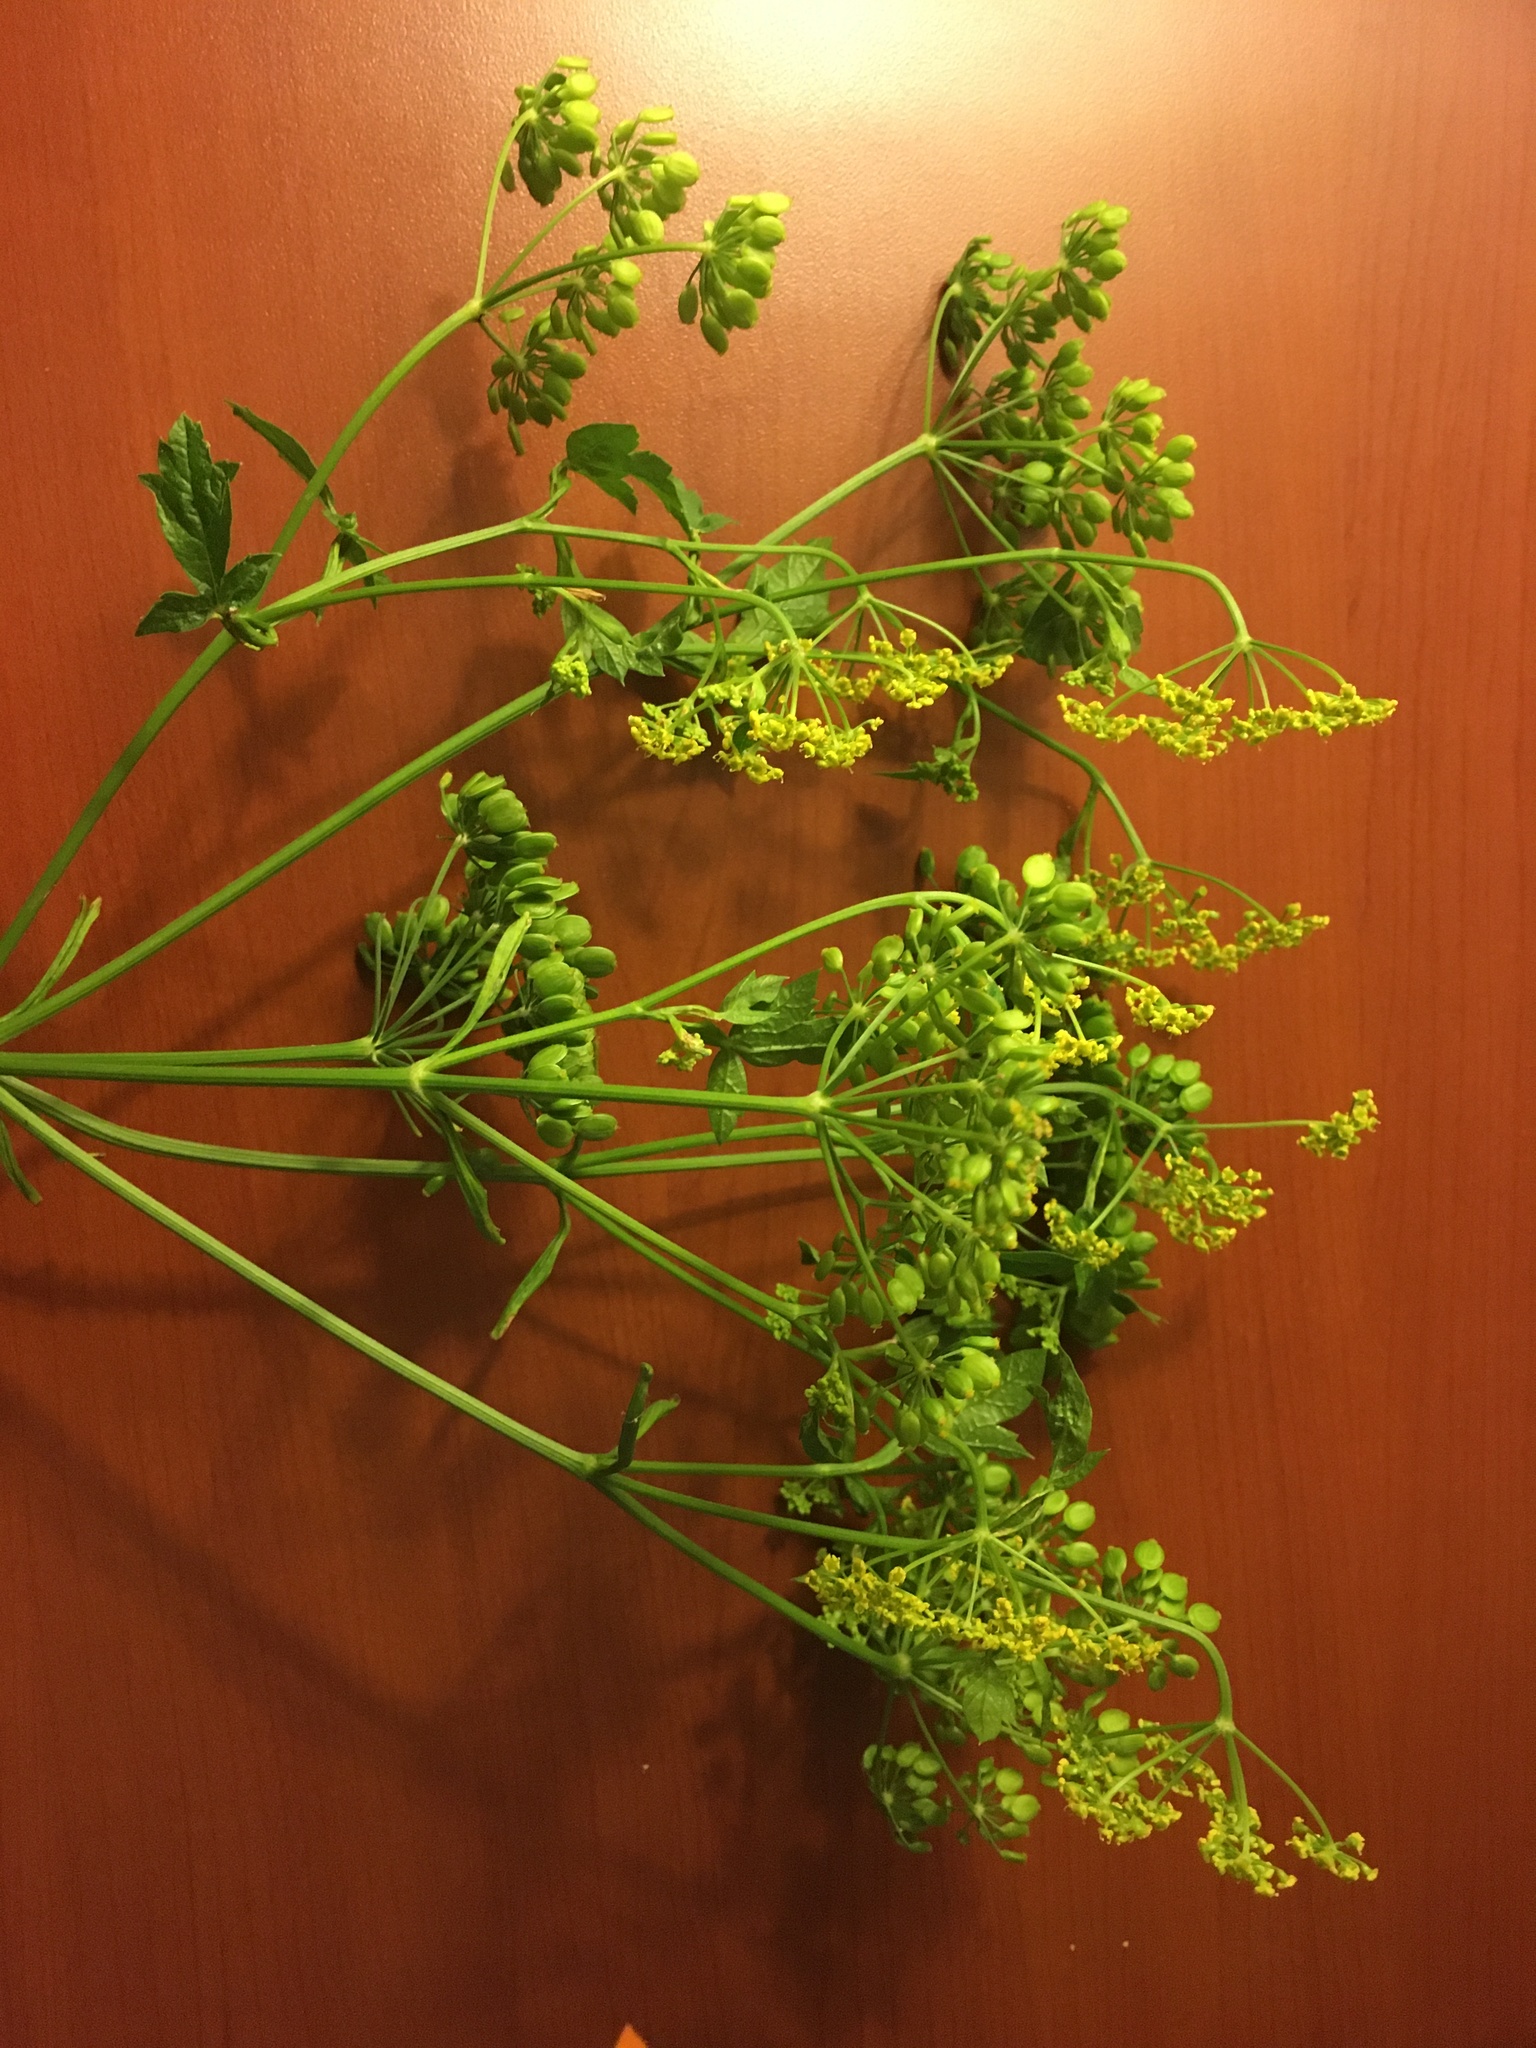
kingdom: Plantae
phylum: Tracheophyta
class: Magnoliopsida
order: Apiales
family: Apiaceae
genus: Pastinaca
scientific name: Pastinaca sativa
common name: Wild parsnip
